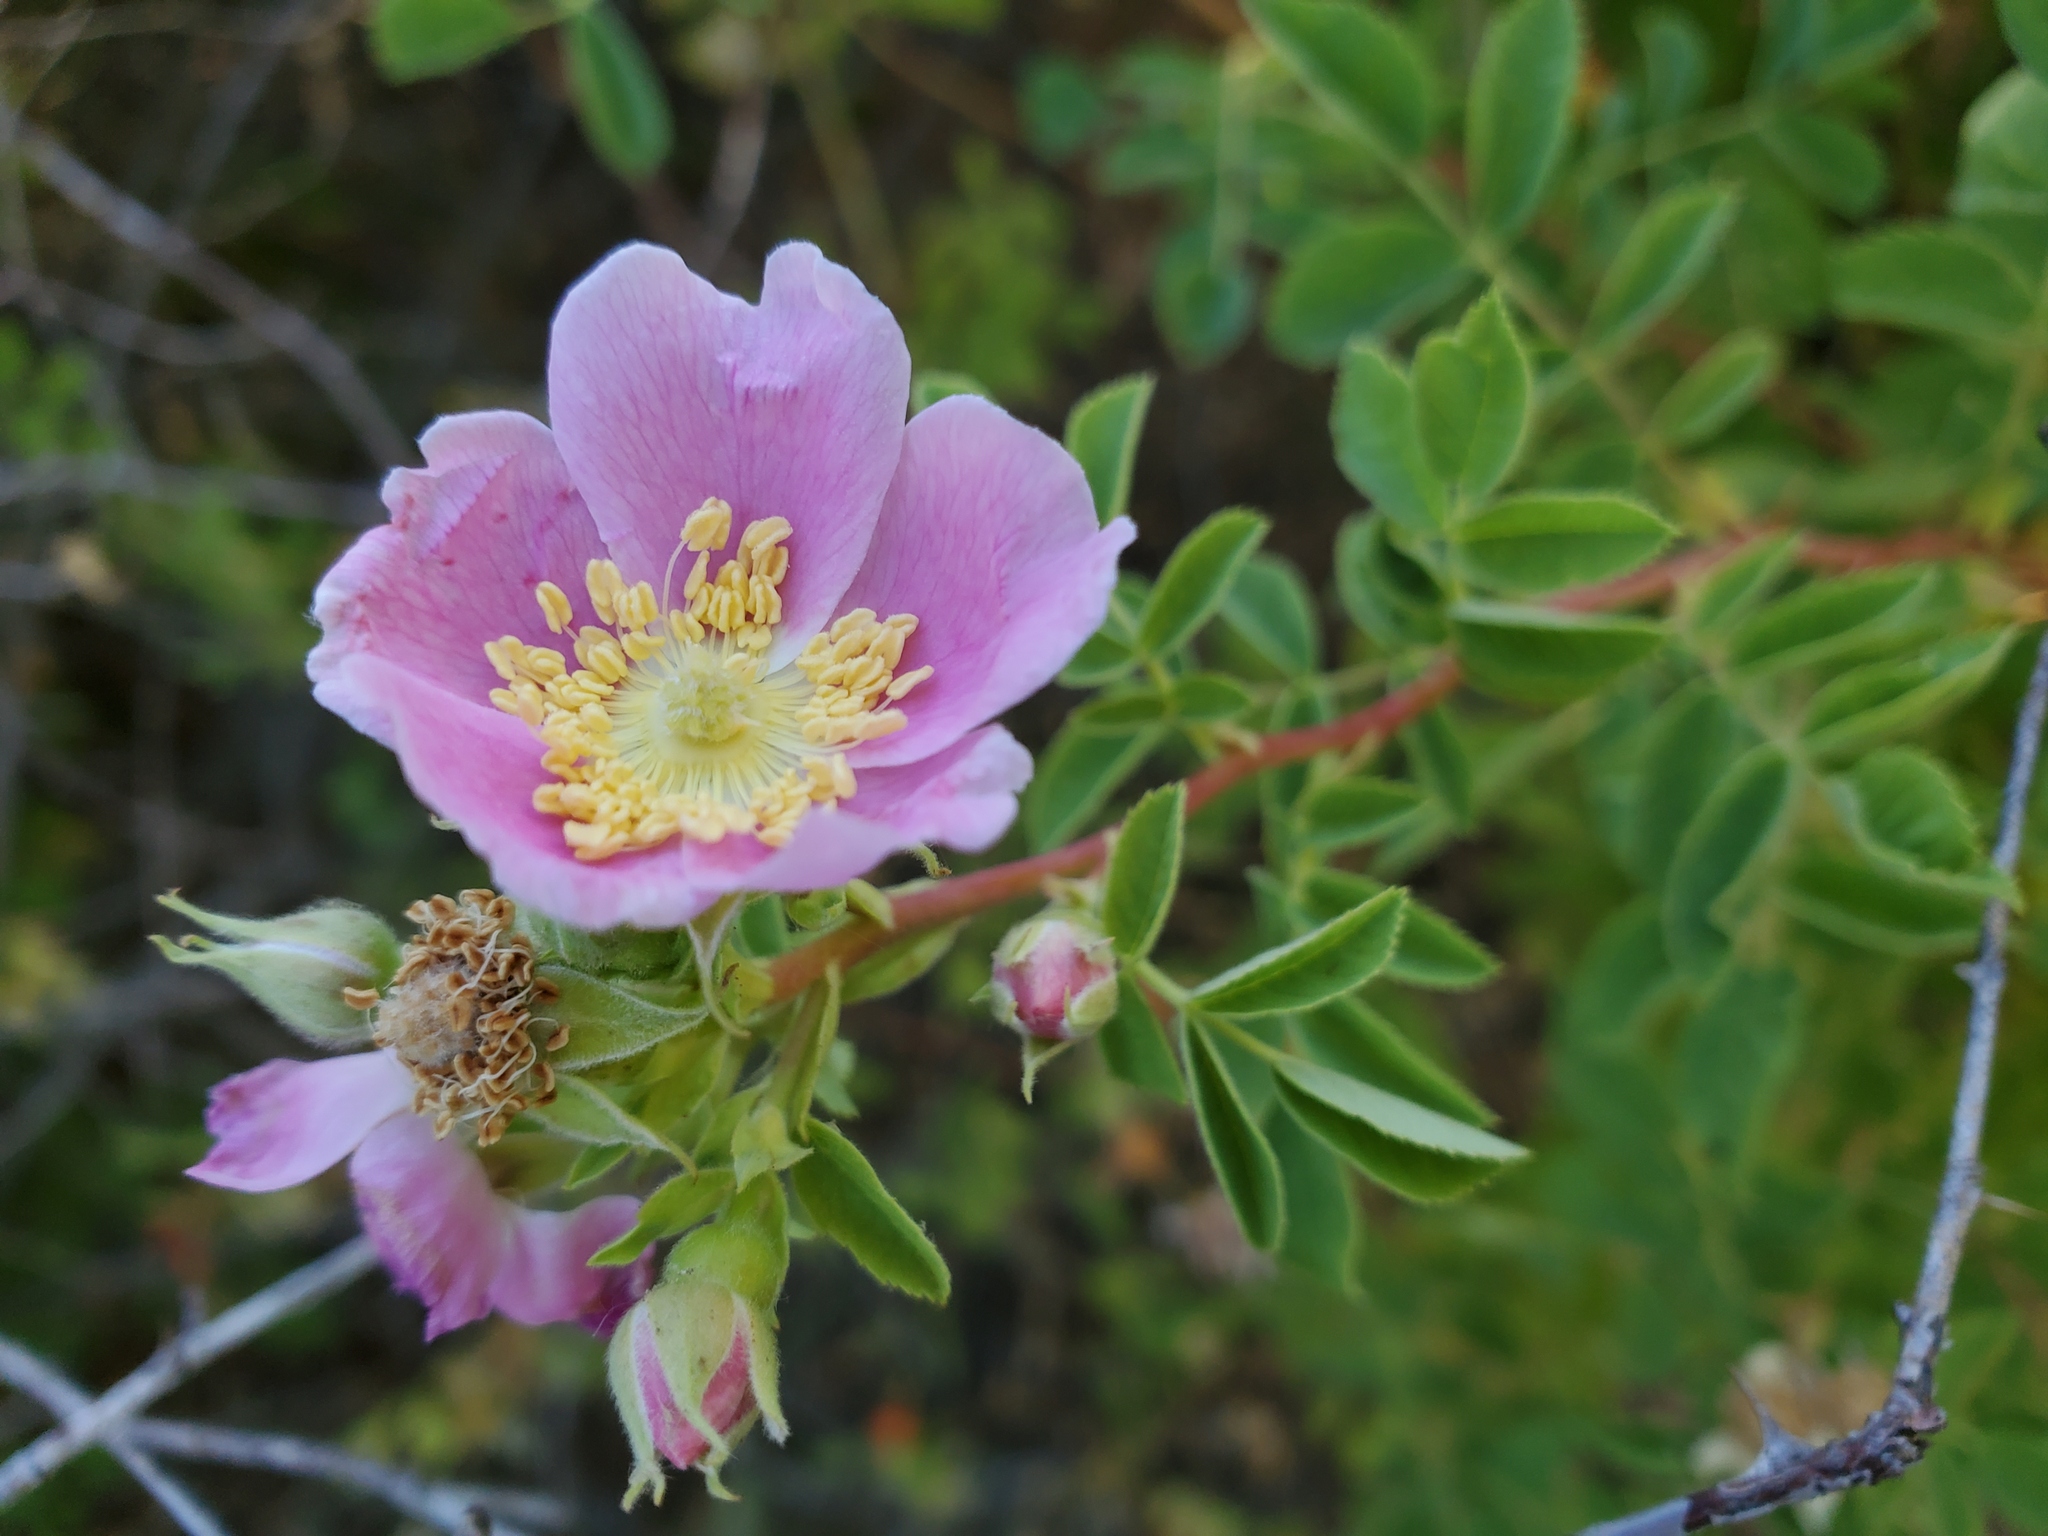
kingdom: Plantae
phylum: Tracheophyta
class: Magnoliopsida
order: Rosales
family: Rosaceae
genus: Rosa
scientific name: Rosa californica
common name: California rose
